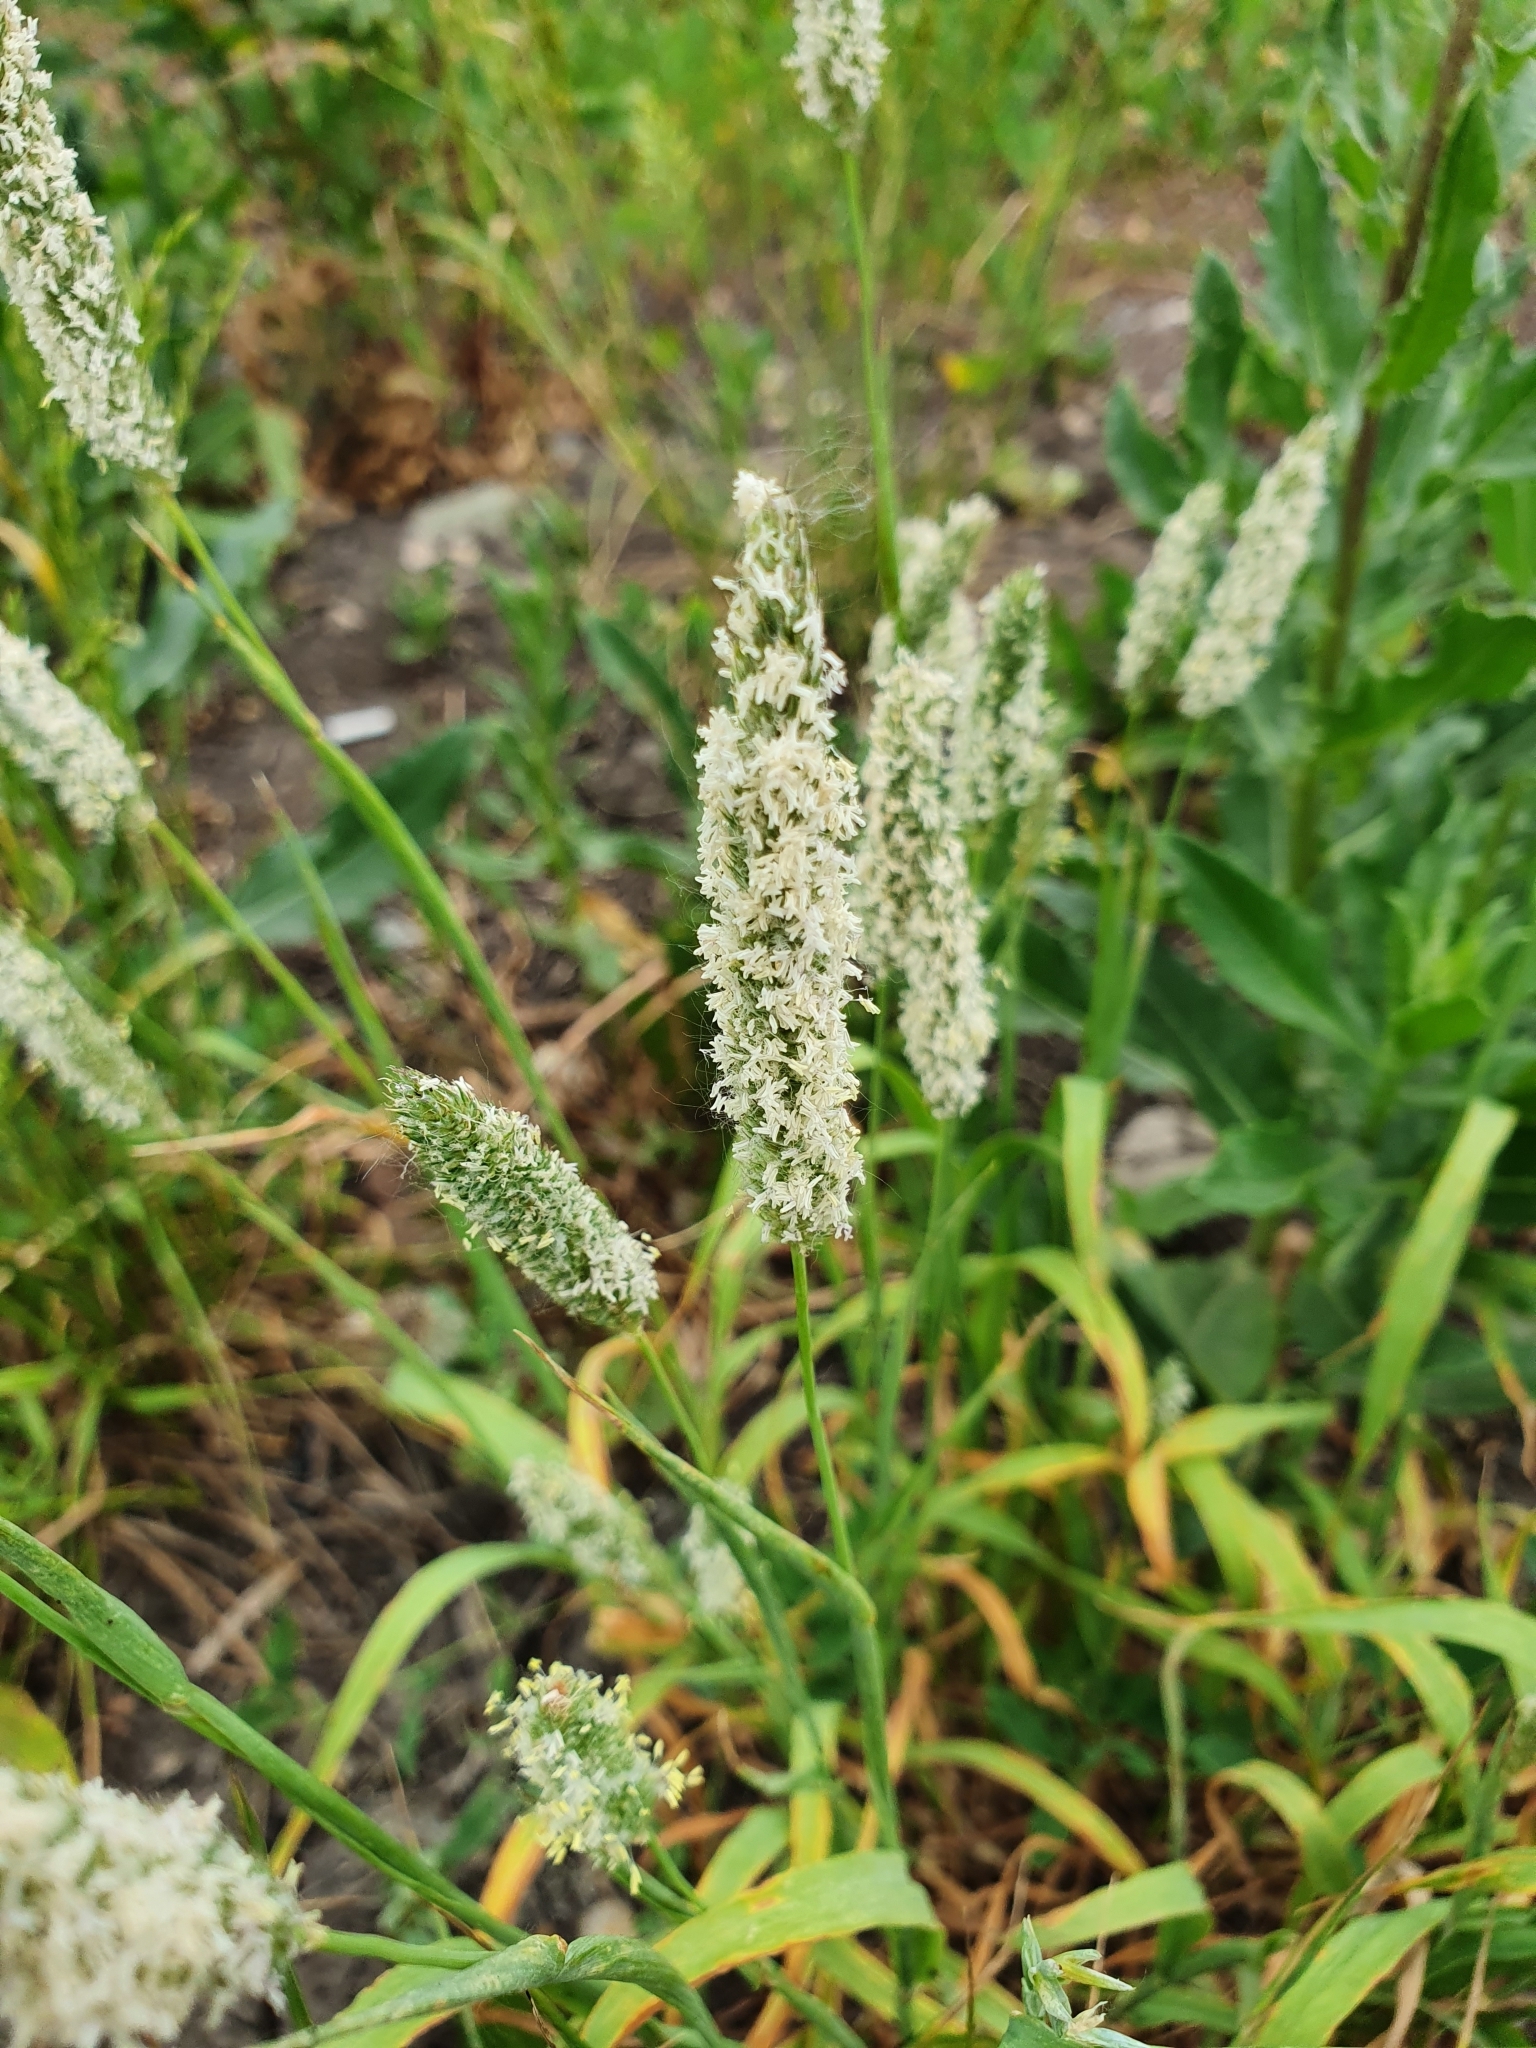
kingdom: Plantae
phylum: Tracheophyta
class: Liliopsida
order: Poales
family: Poaceae
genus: Phleum
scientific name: Phleum pratense
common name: Timothy grass
